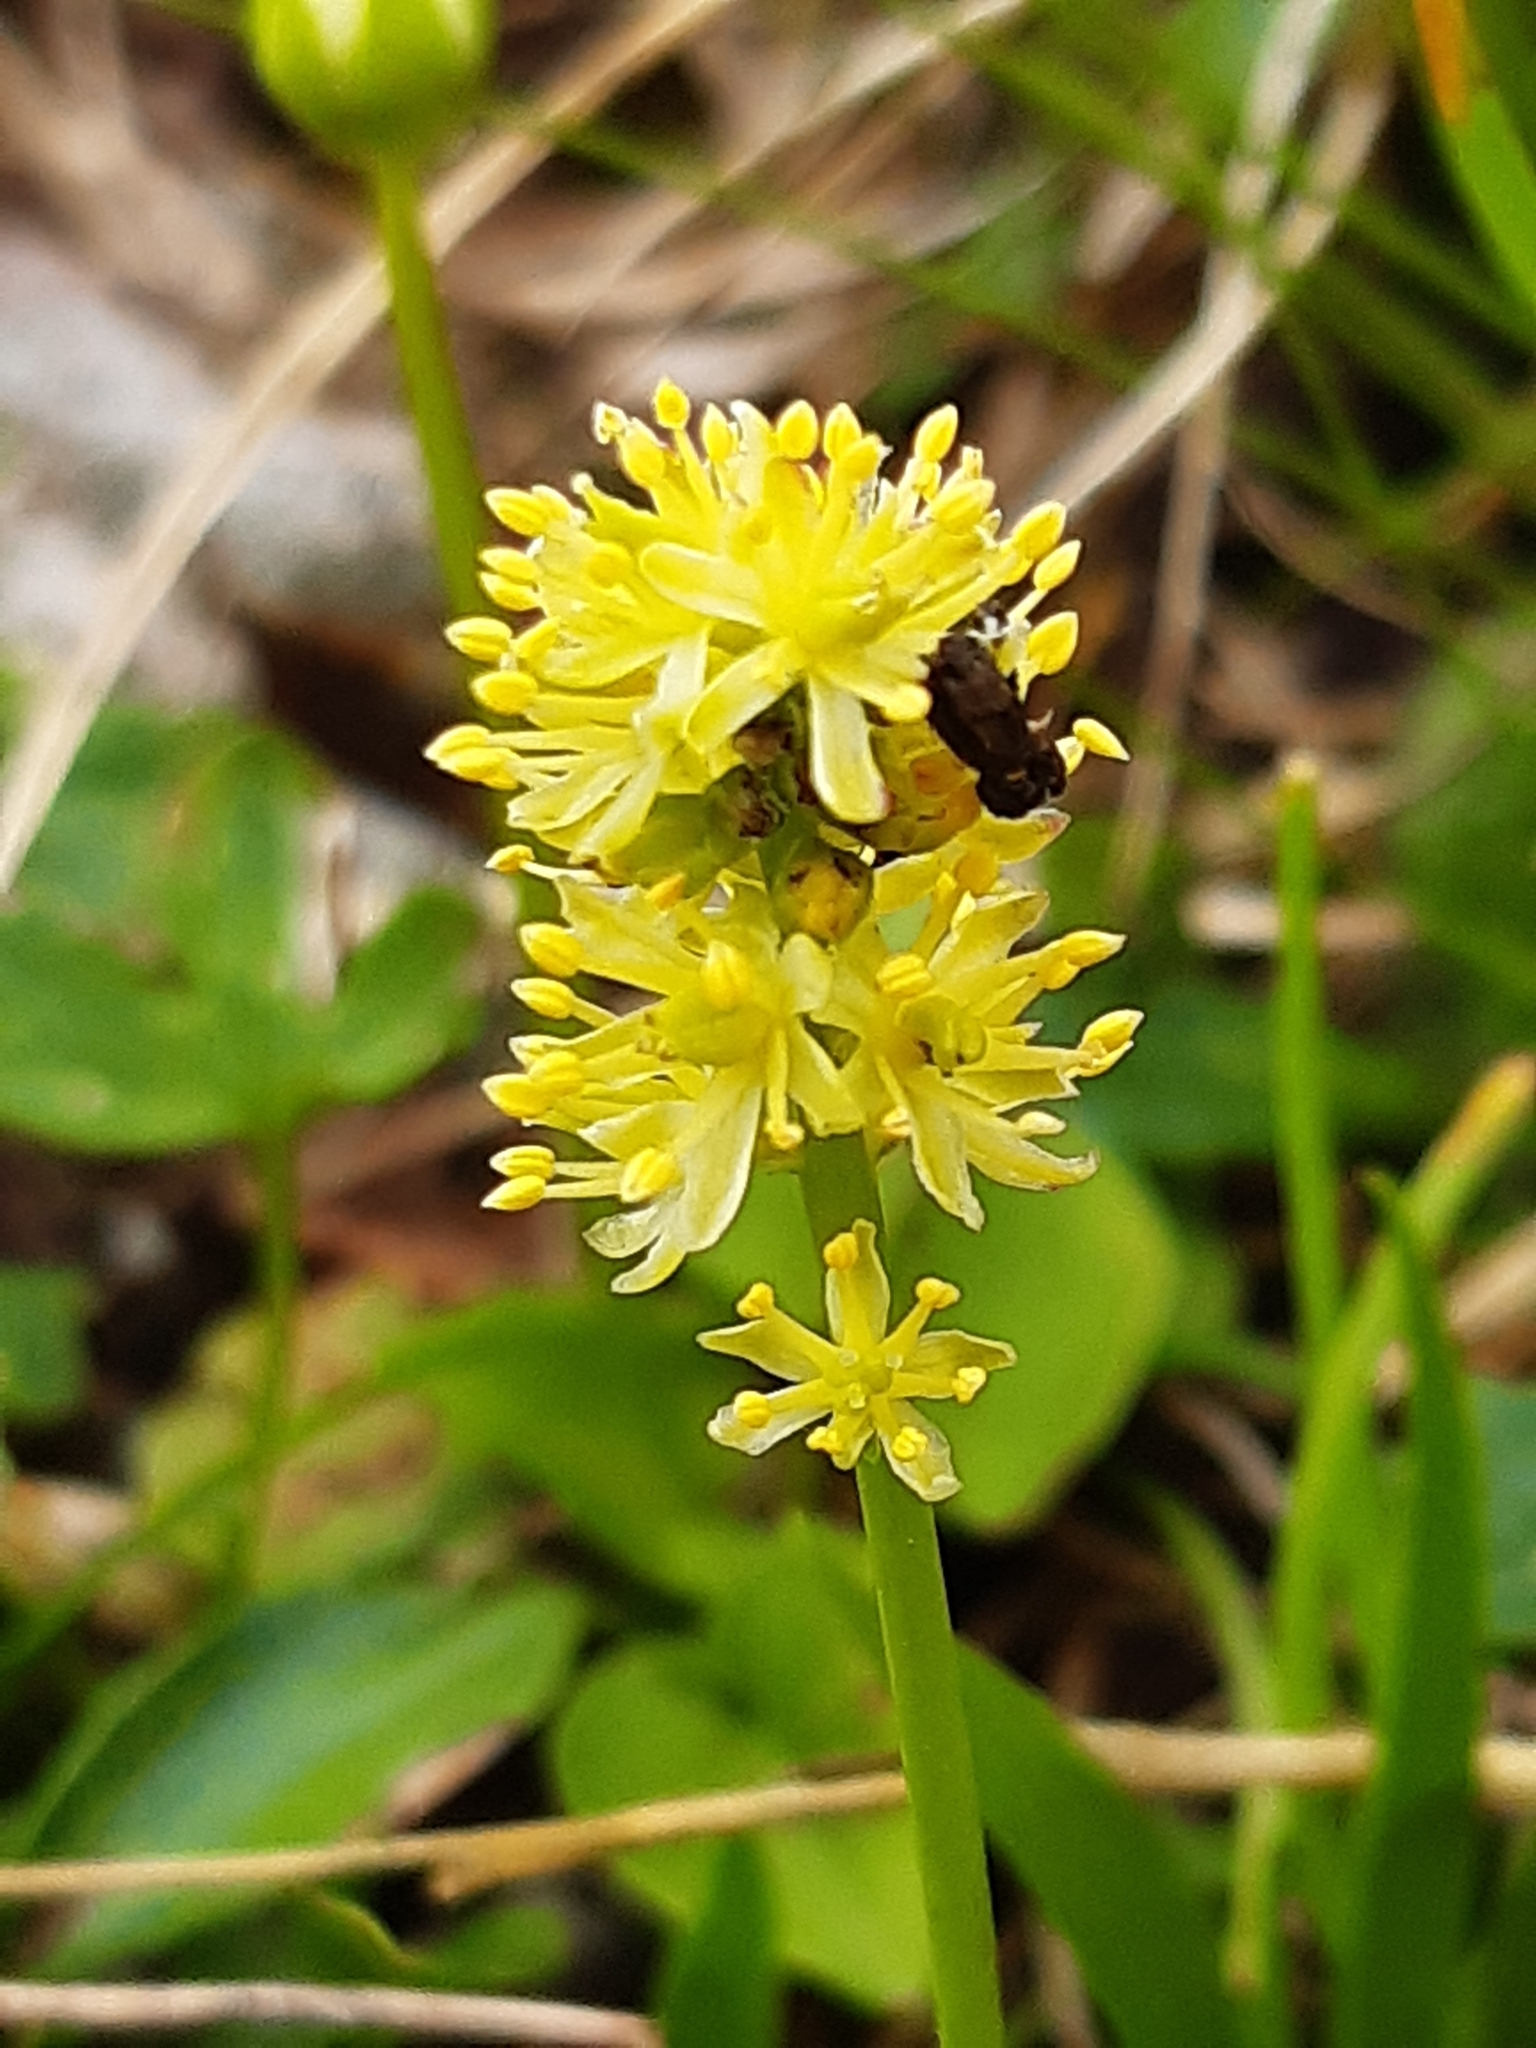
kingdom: Plantae
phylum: Tracheophyta
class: Liliopsida
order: Alismatales
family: Tofieldiaceae
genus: Tofieldia
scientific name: Tofieldia calyculata
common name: German-asphodel
